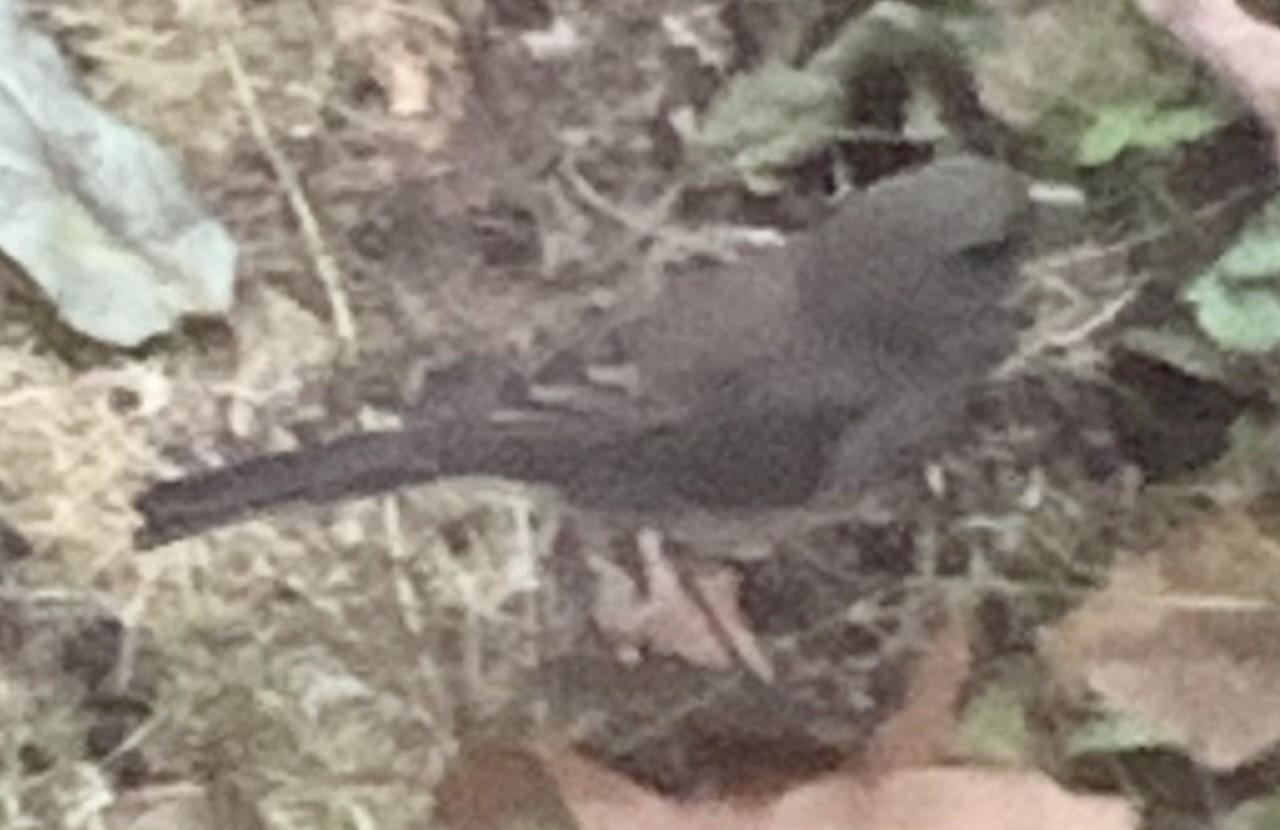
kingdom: Animalia
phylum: Chordata
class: Aves
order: Passeriformes
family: Passerellidae
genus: Junco
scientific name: Junco hyemalis
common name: Dark-eyed junco
